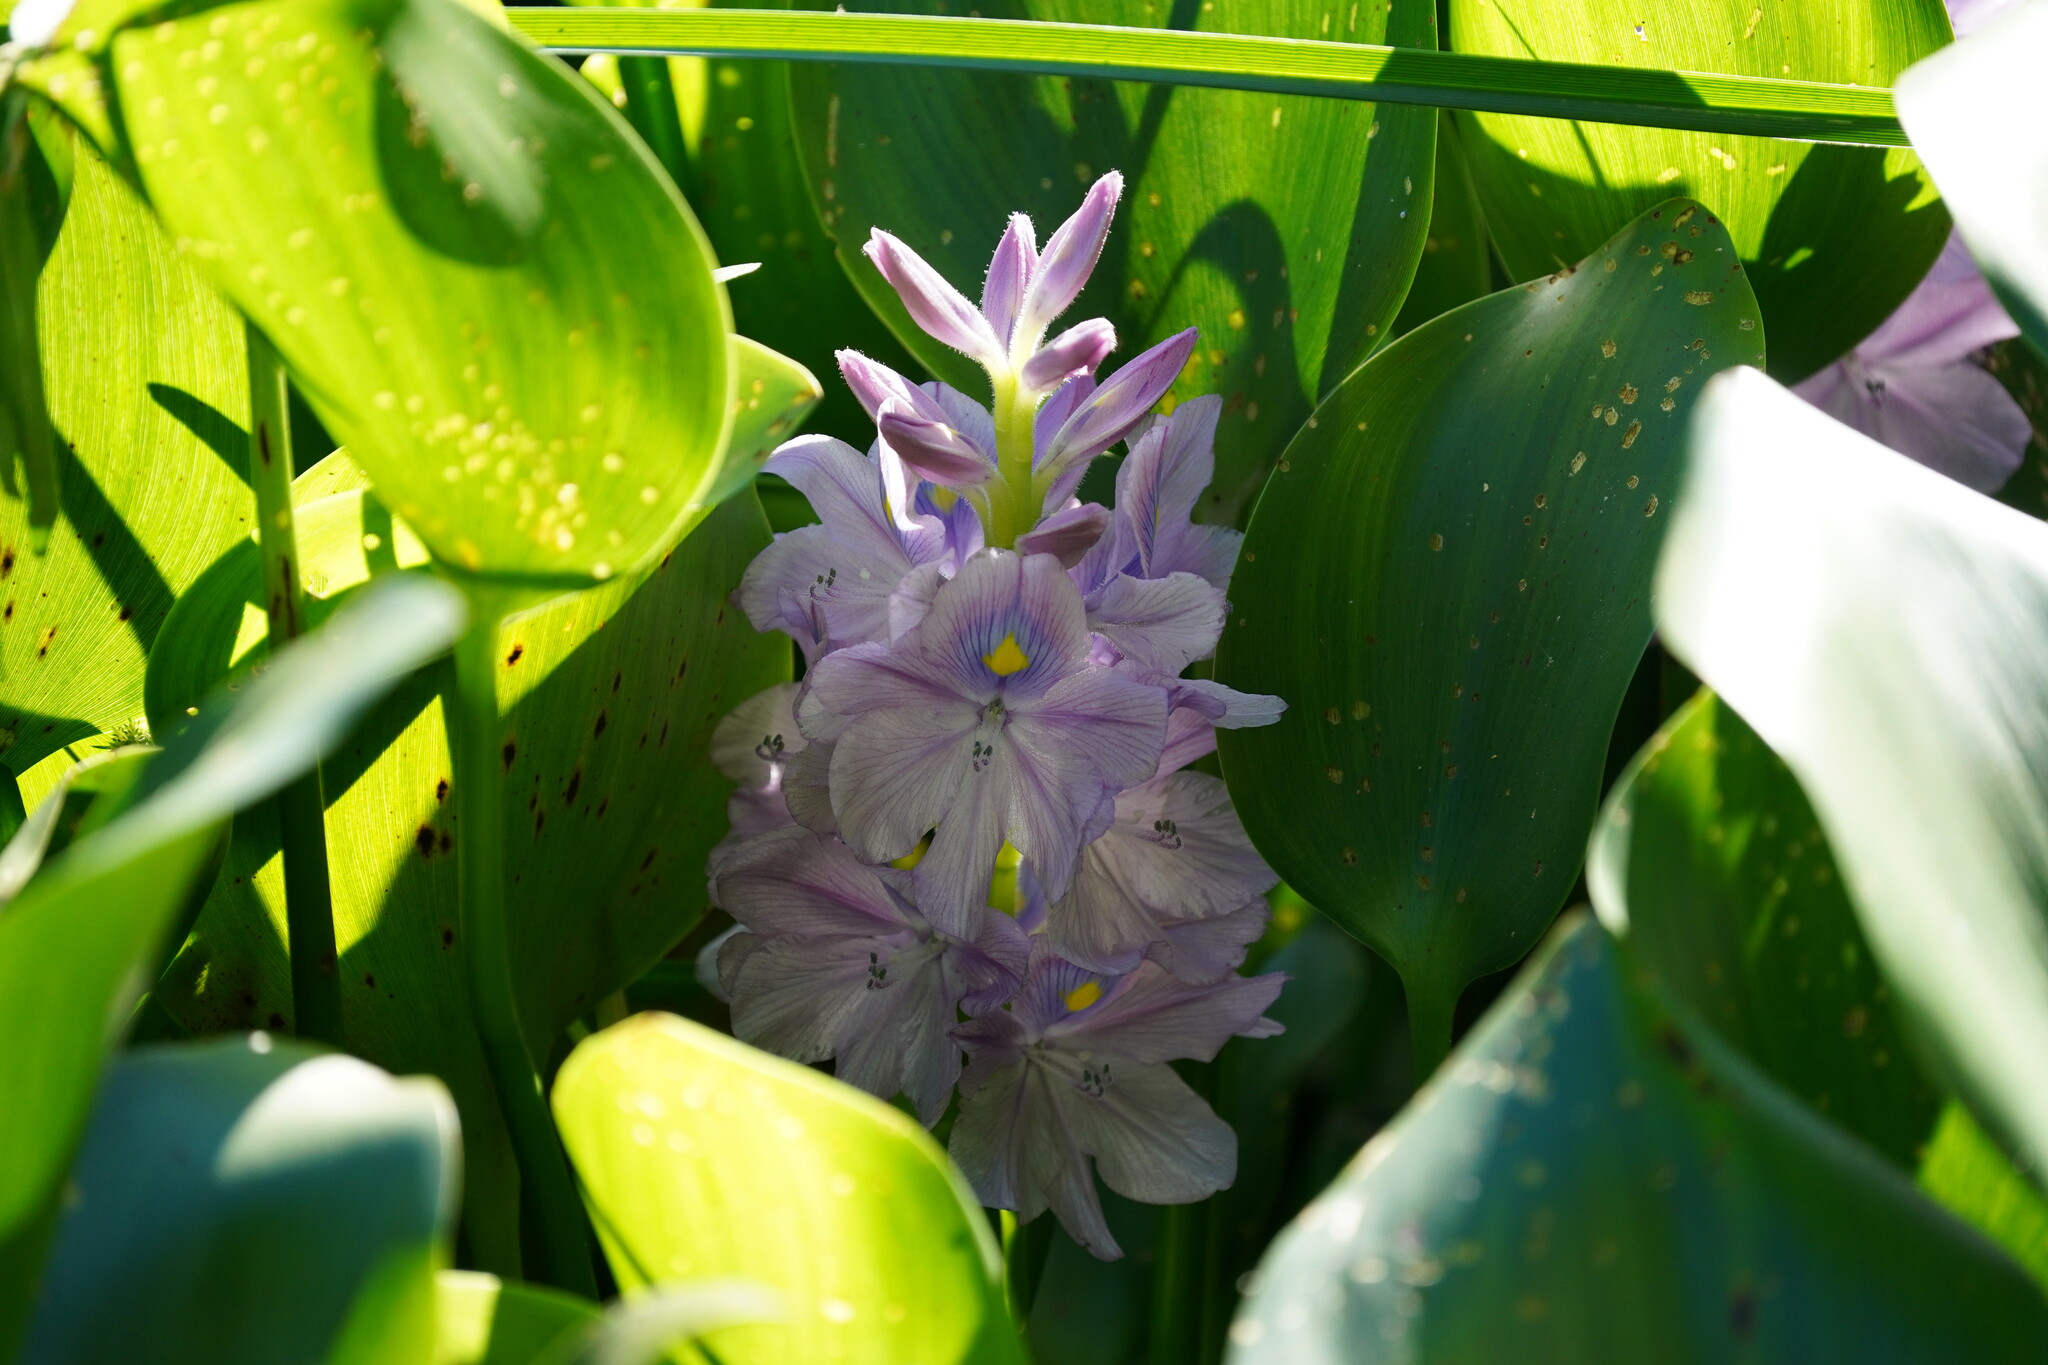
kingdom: Plantae
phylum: Tracheophyta
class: Liliopsida
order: Commelinales
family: Pontederiaceae
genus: Pontederia
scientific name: Pontederia crassipes
